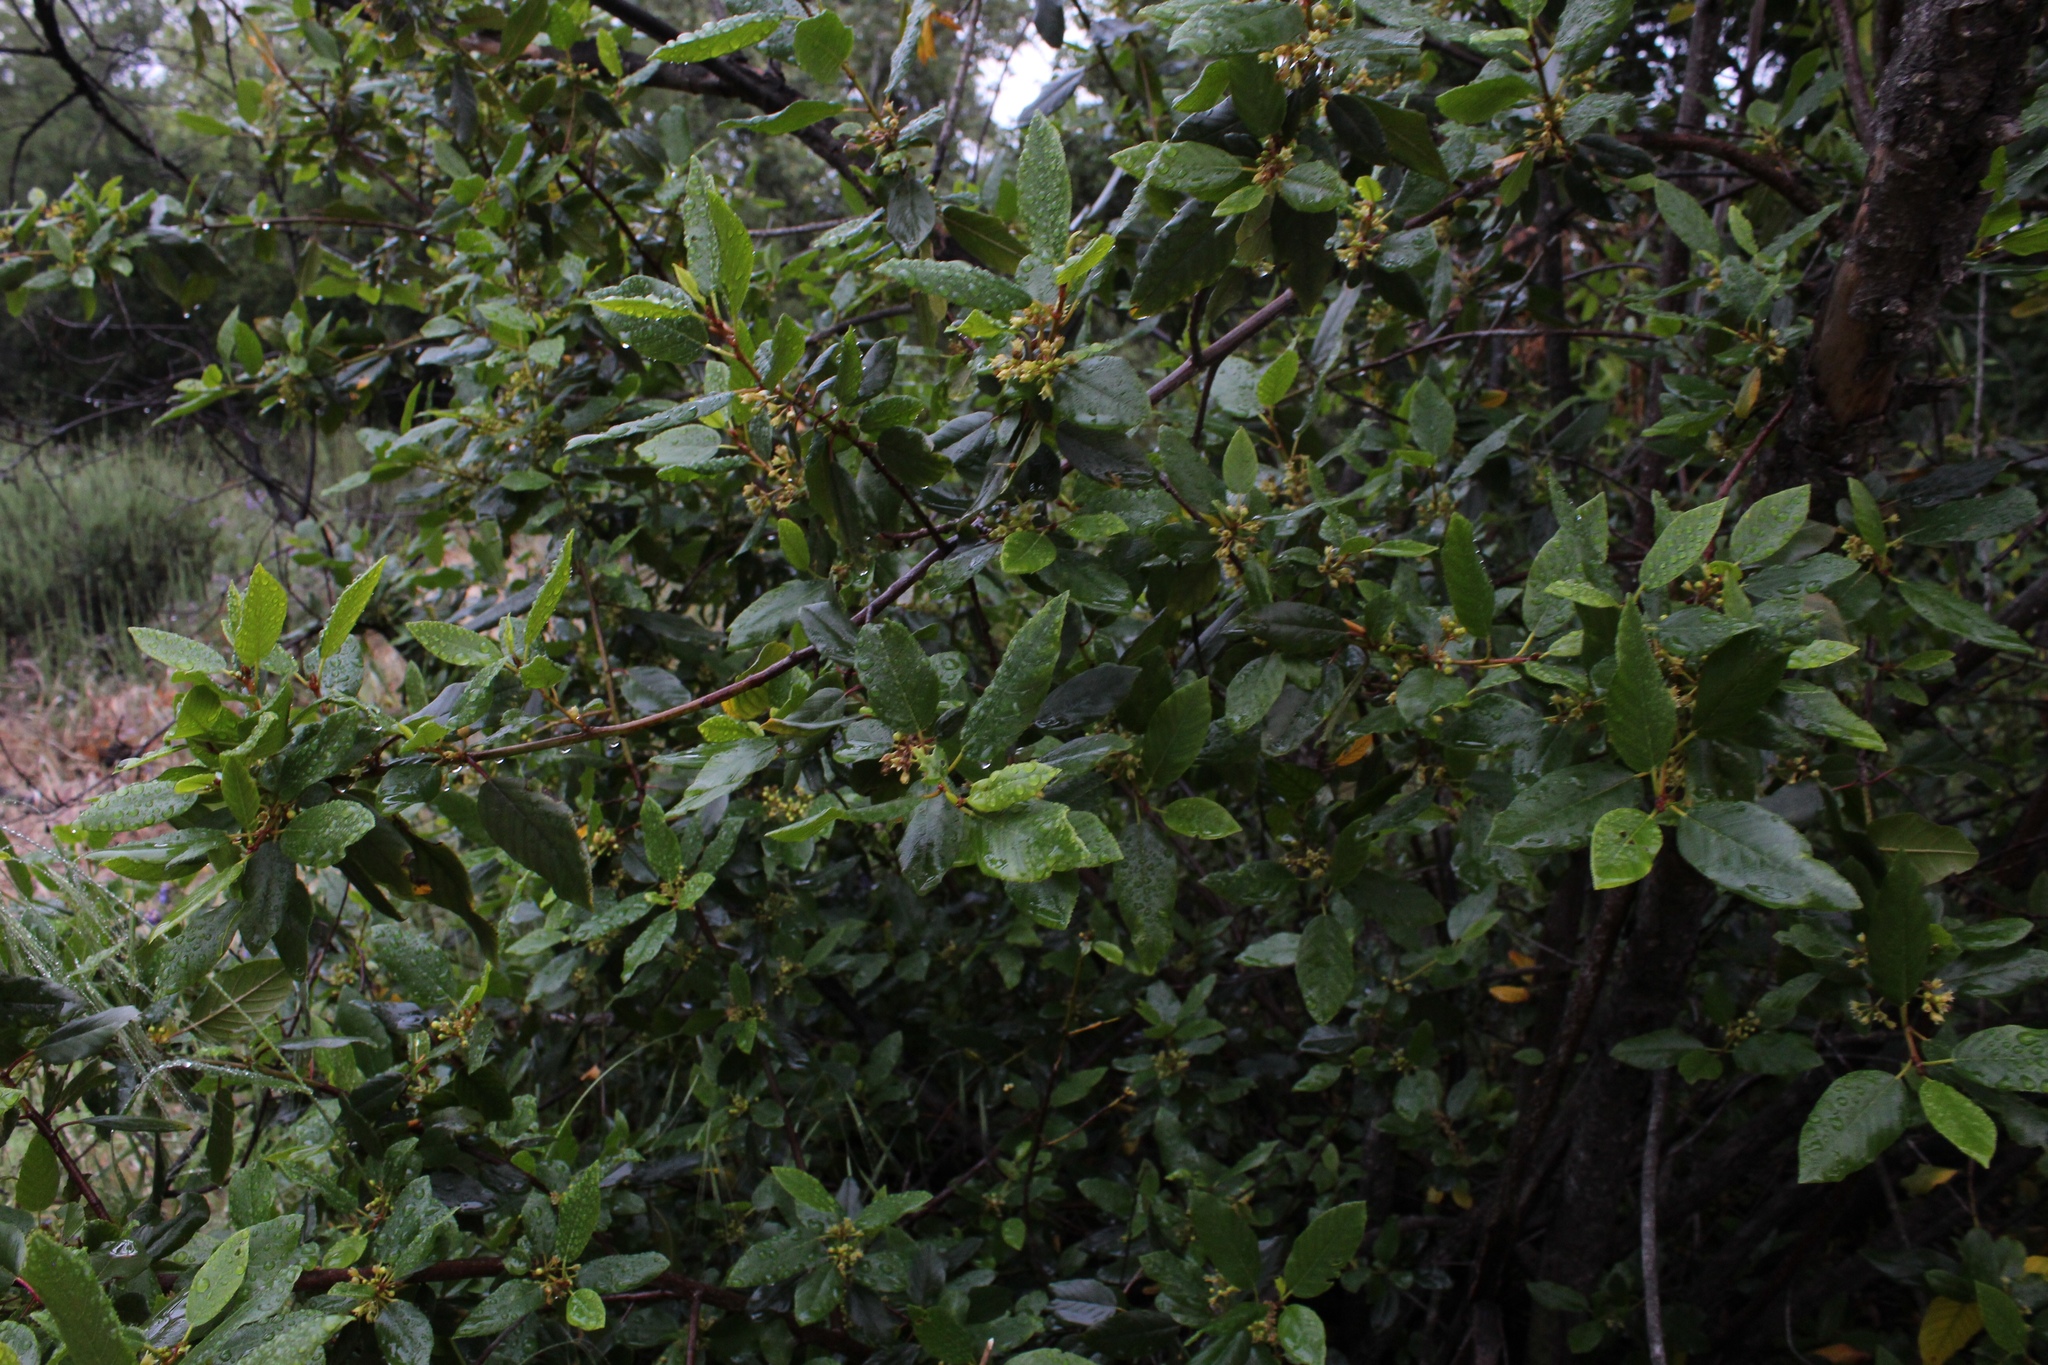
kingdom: Plantae
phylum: Tracheophyta
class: Magnoliopsida
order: Rosales
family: Rhamnaceae
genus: Frangula
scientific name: Frangula californica
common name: California buckthorn
